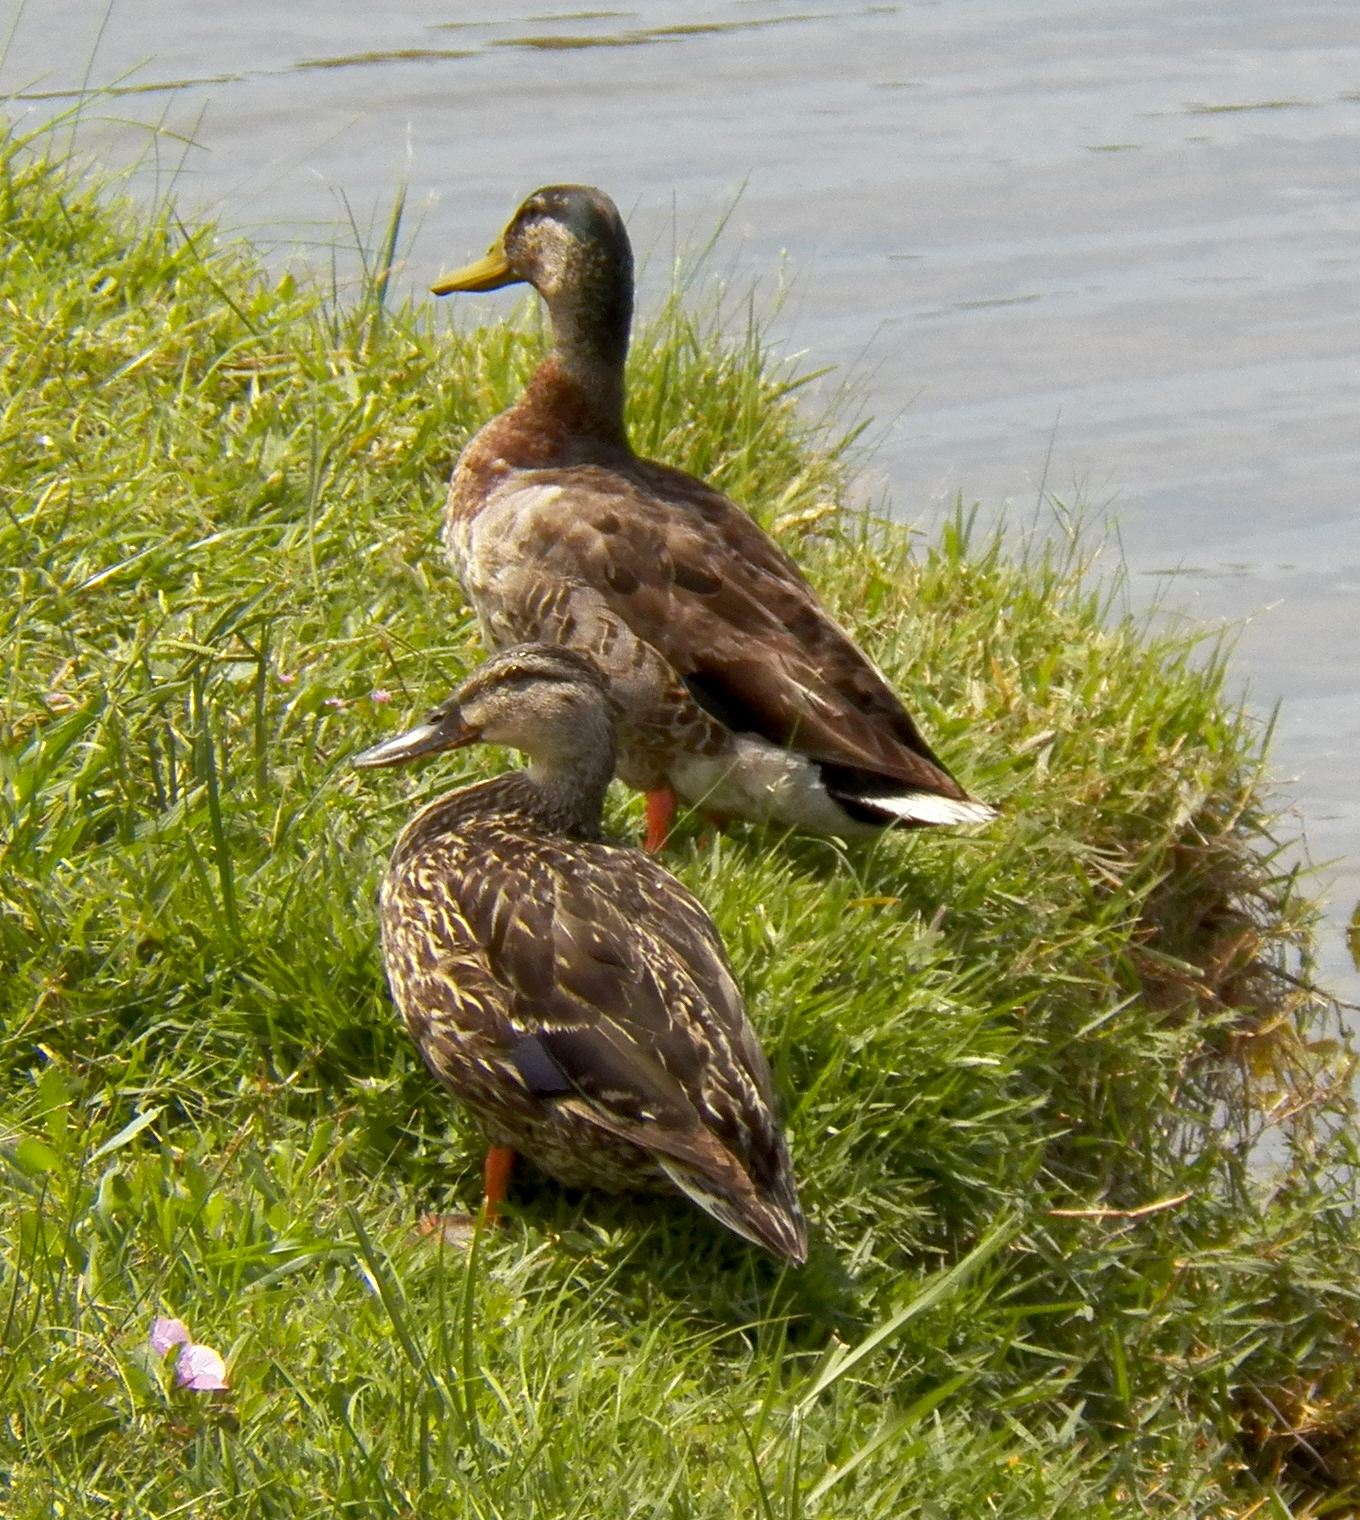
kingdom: Animalia
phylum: Chordata
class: Aves
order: Anseriformes
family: Anatidae
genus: Anas
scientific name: Anas platyrhynchos
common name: Mallard
